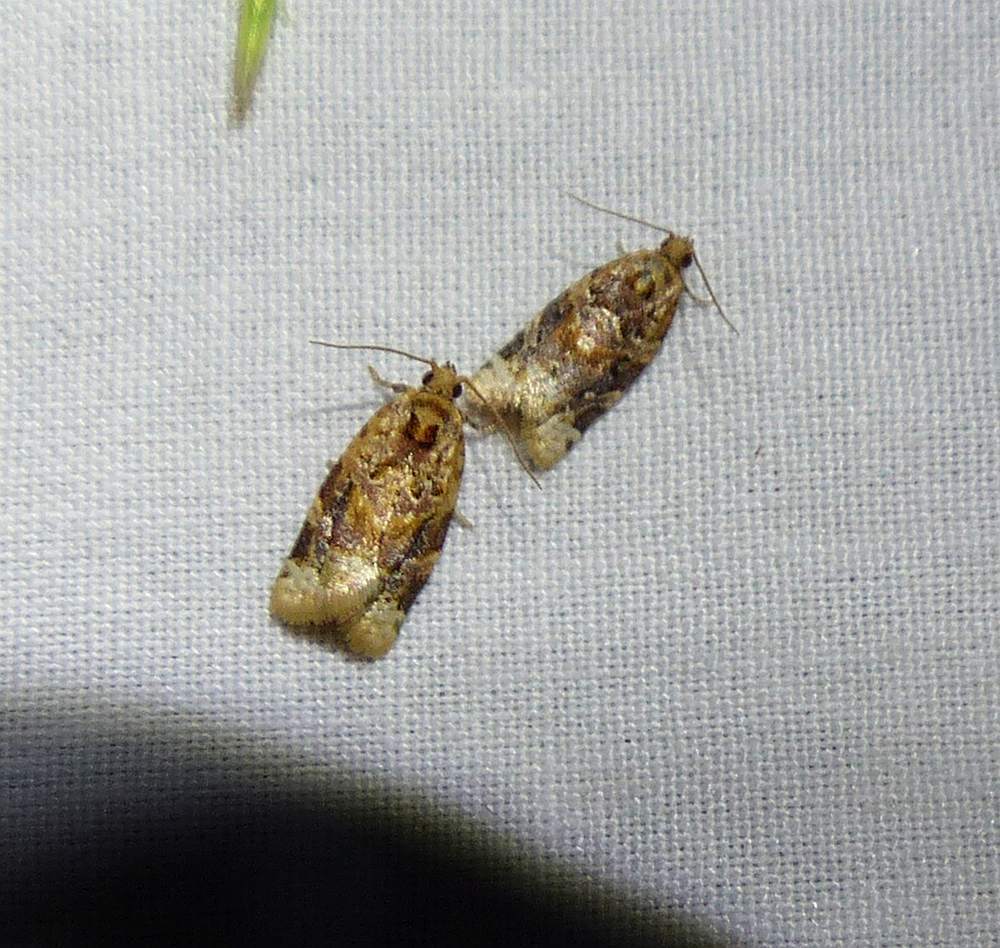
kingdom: Animalia
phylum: Arthropoda
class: Insecta
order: Lepidoptera
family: Tortricidae
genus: Argyrotaenia
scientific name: Argyrotaenia velutinana
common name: Red-banded leafroller moth
